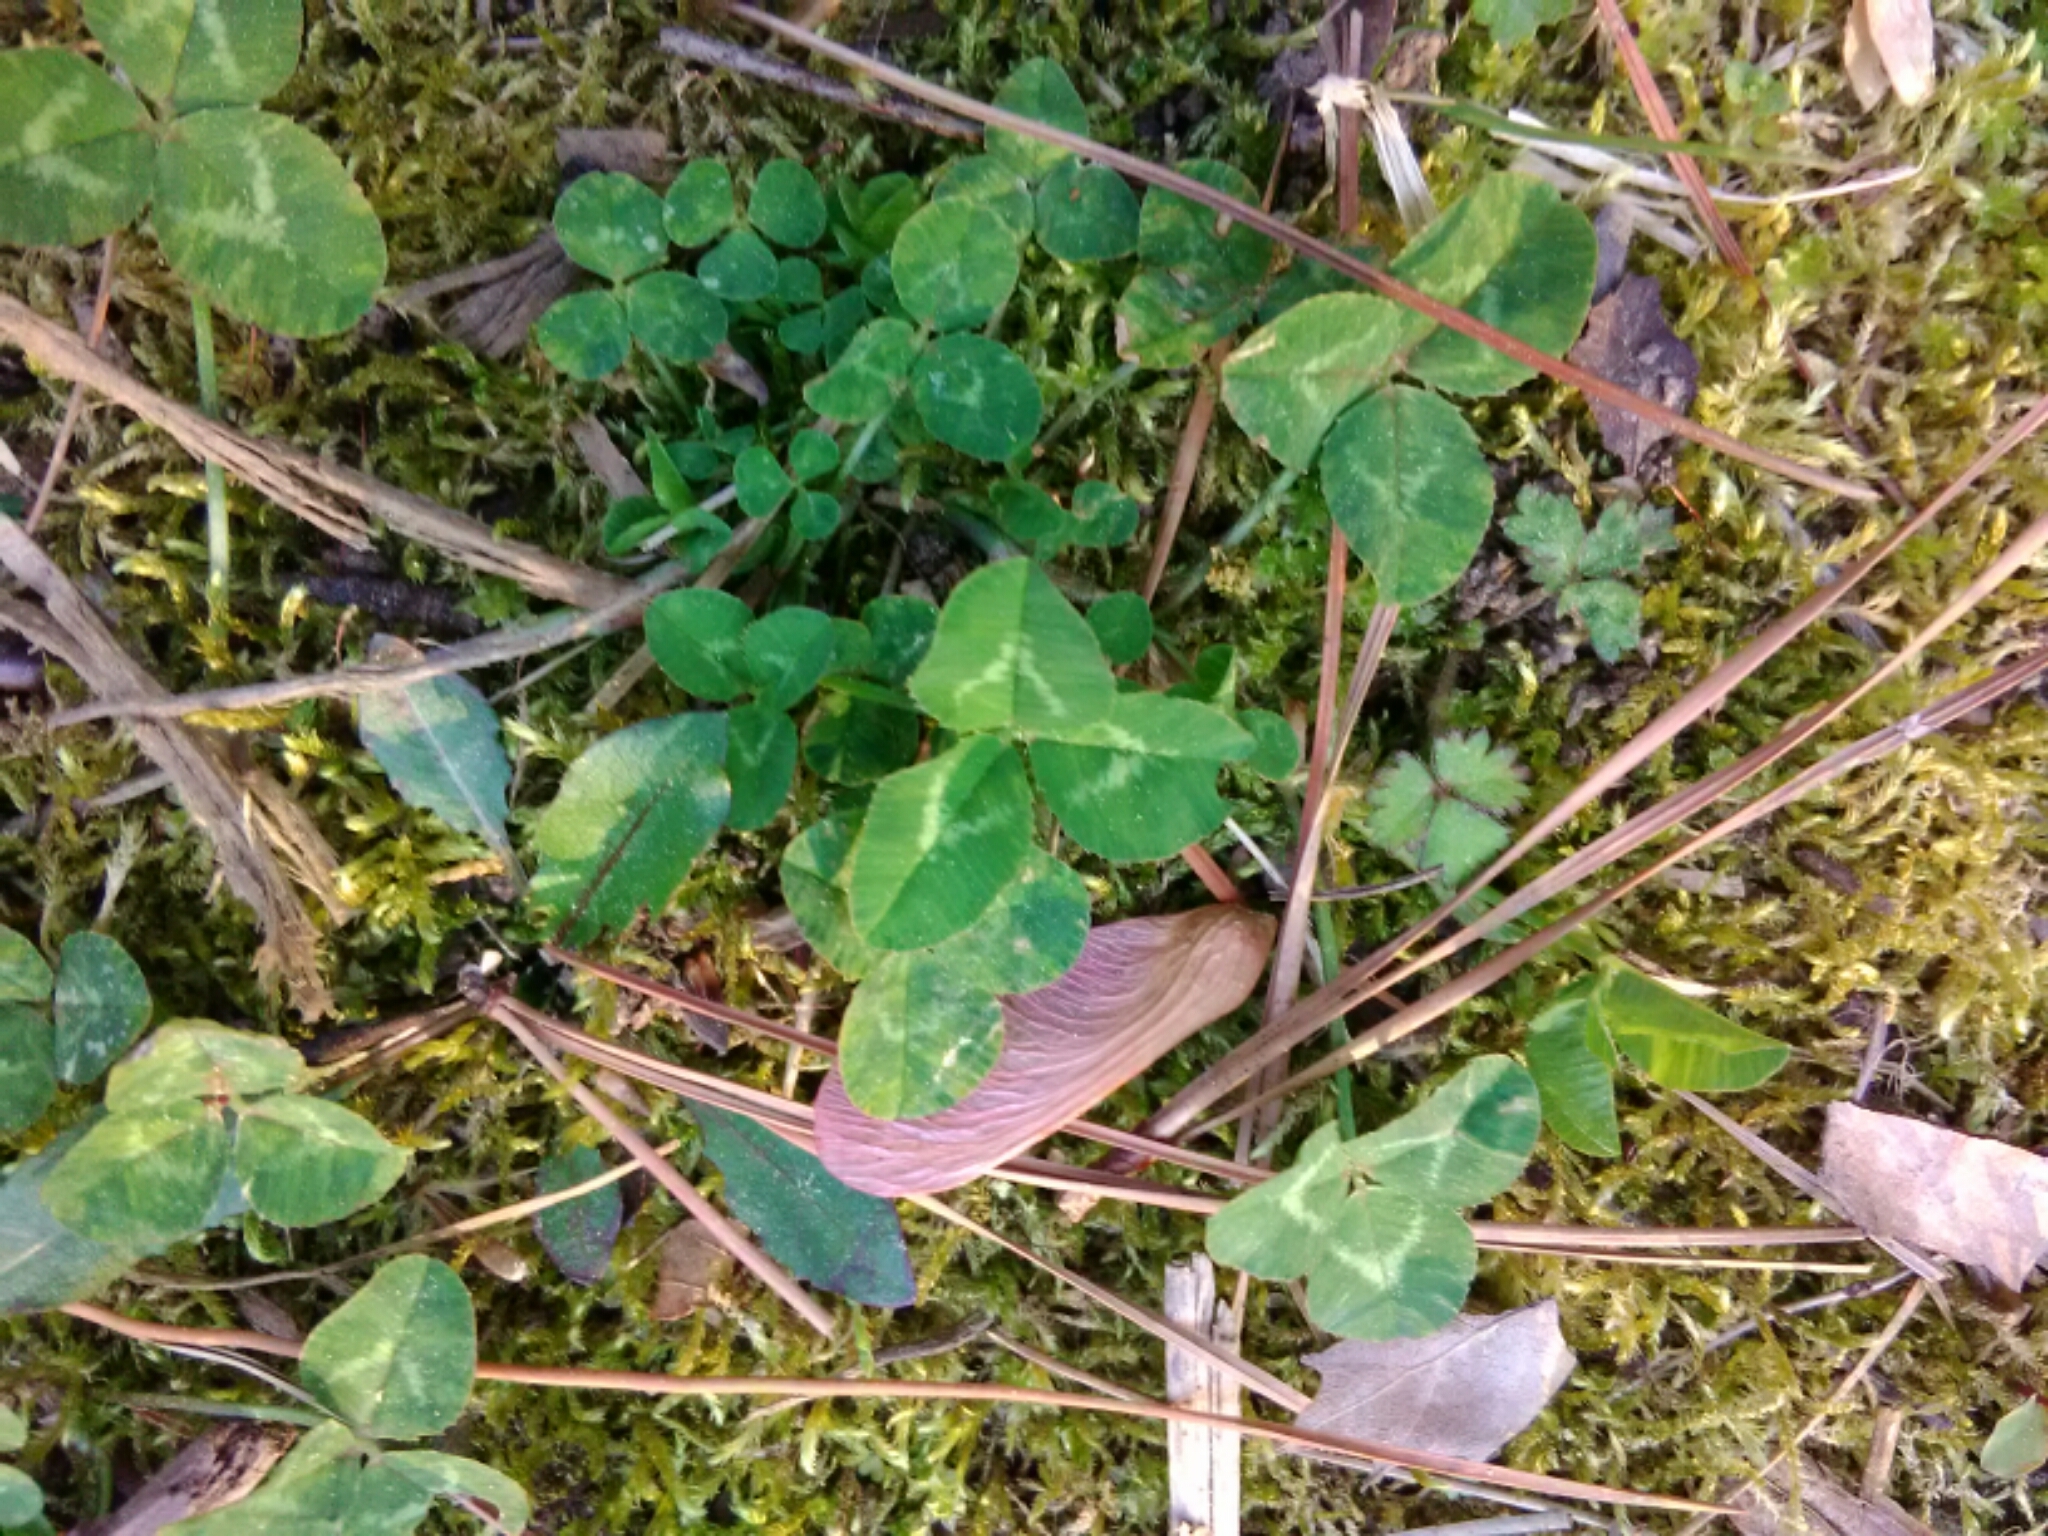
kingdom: Plantae
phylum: Tracheophyta
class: Magnoliopsida
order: Fabales
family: Fabaceae
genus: Trifolium
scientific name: Trifolium repens
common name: White clover
